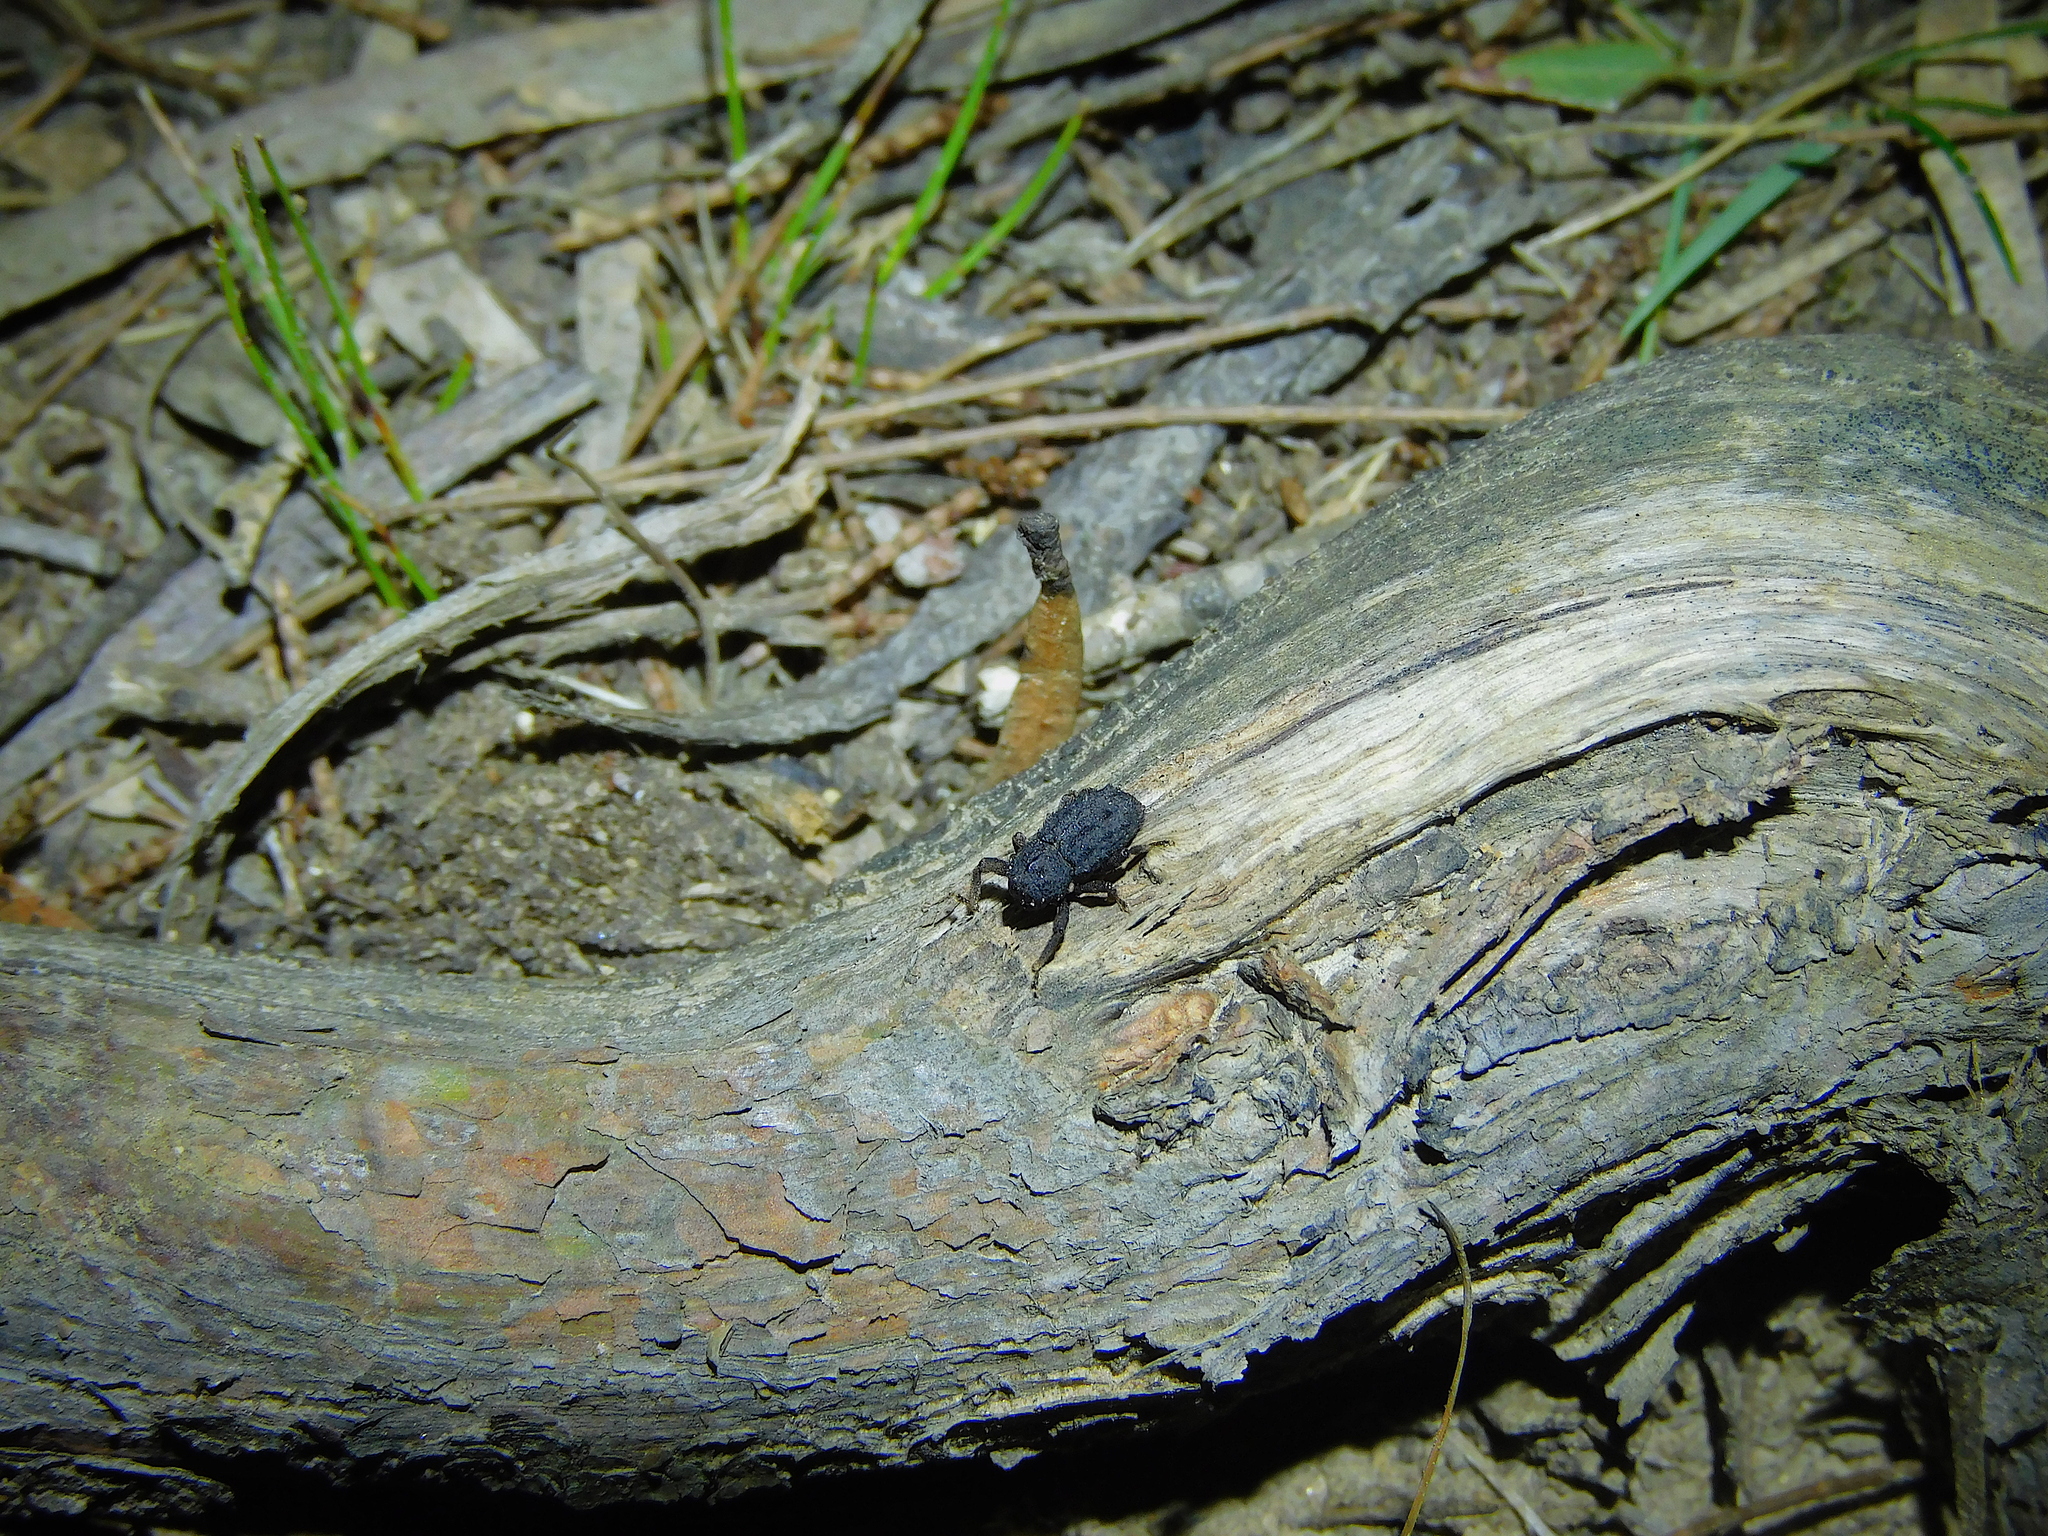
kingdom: Animalia
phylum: Arthropoda
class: Insecta
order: Coleoptera
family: Curculionidae
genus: Poropterus
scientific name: Poropterus melancholicus
